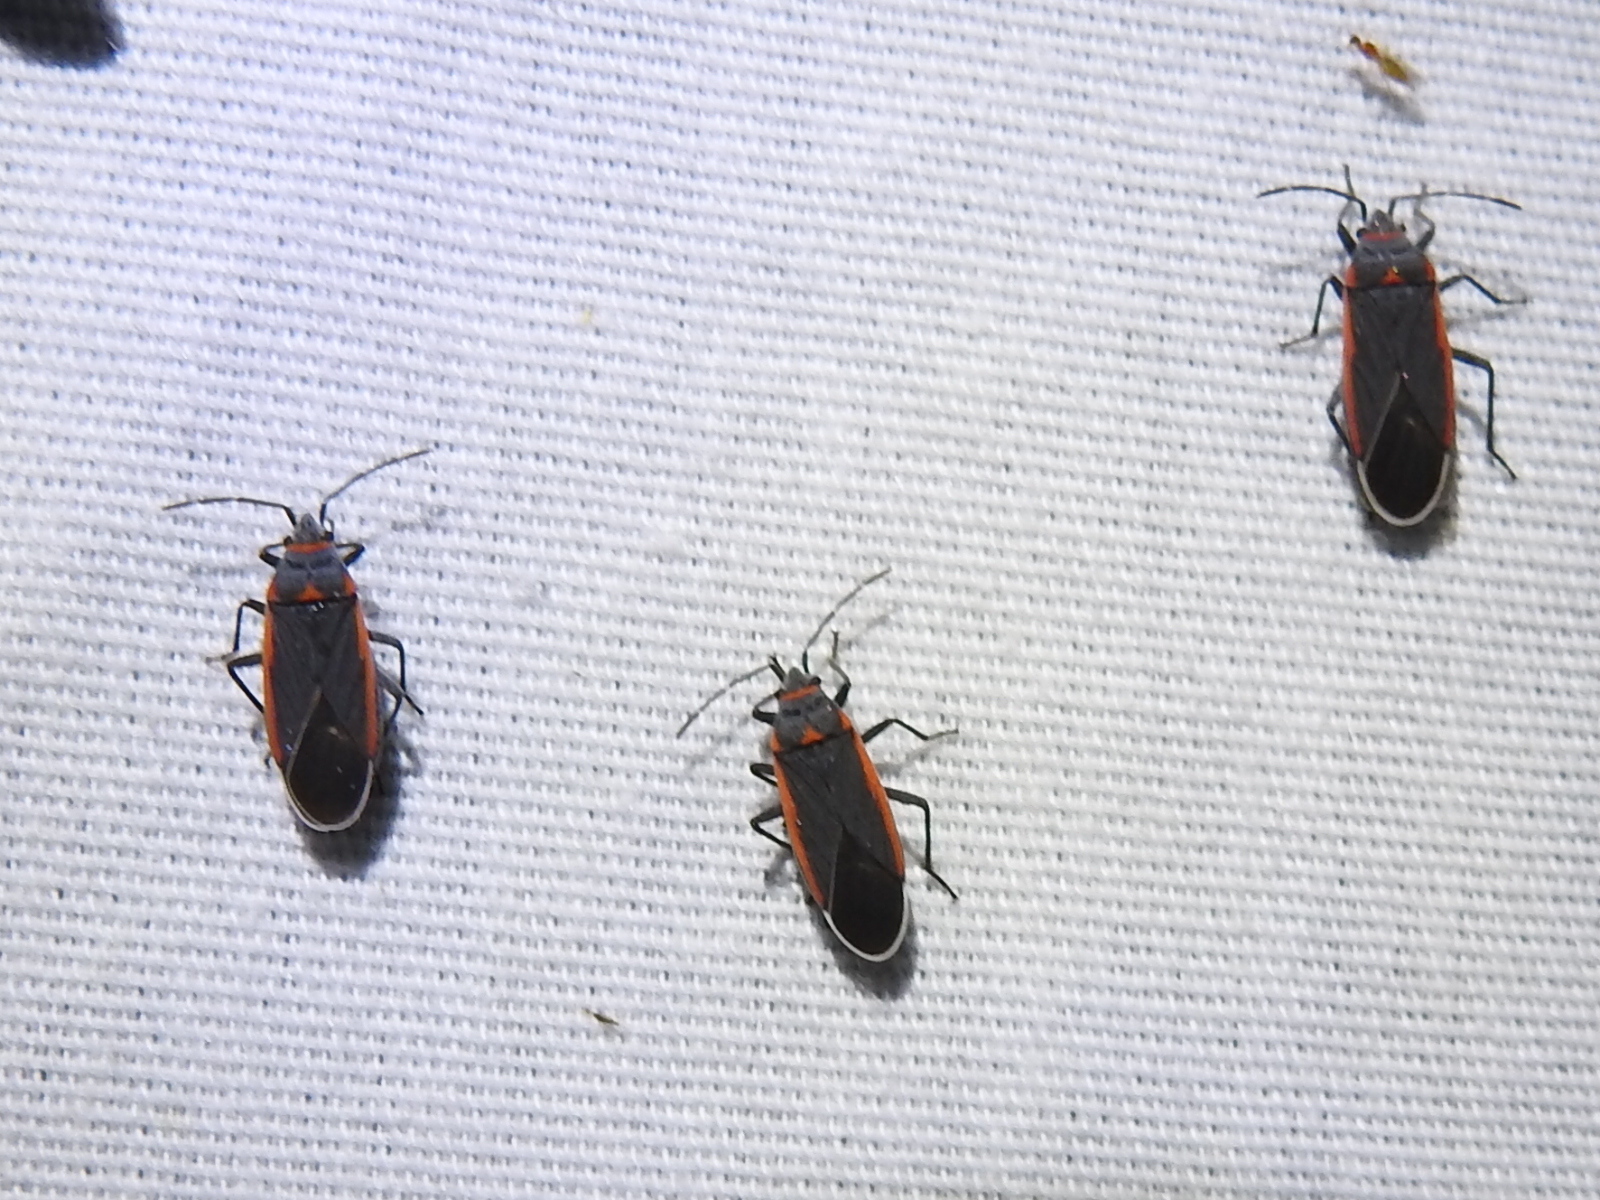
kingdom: Animalia
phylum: Arthropoda
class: Insecta
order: Hemiptera
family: Lygaeidae
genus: Melacoryphus
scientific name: Melacoryphus lateralis
